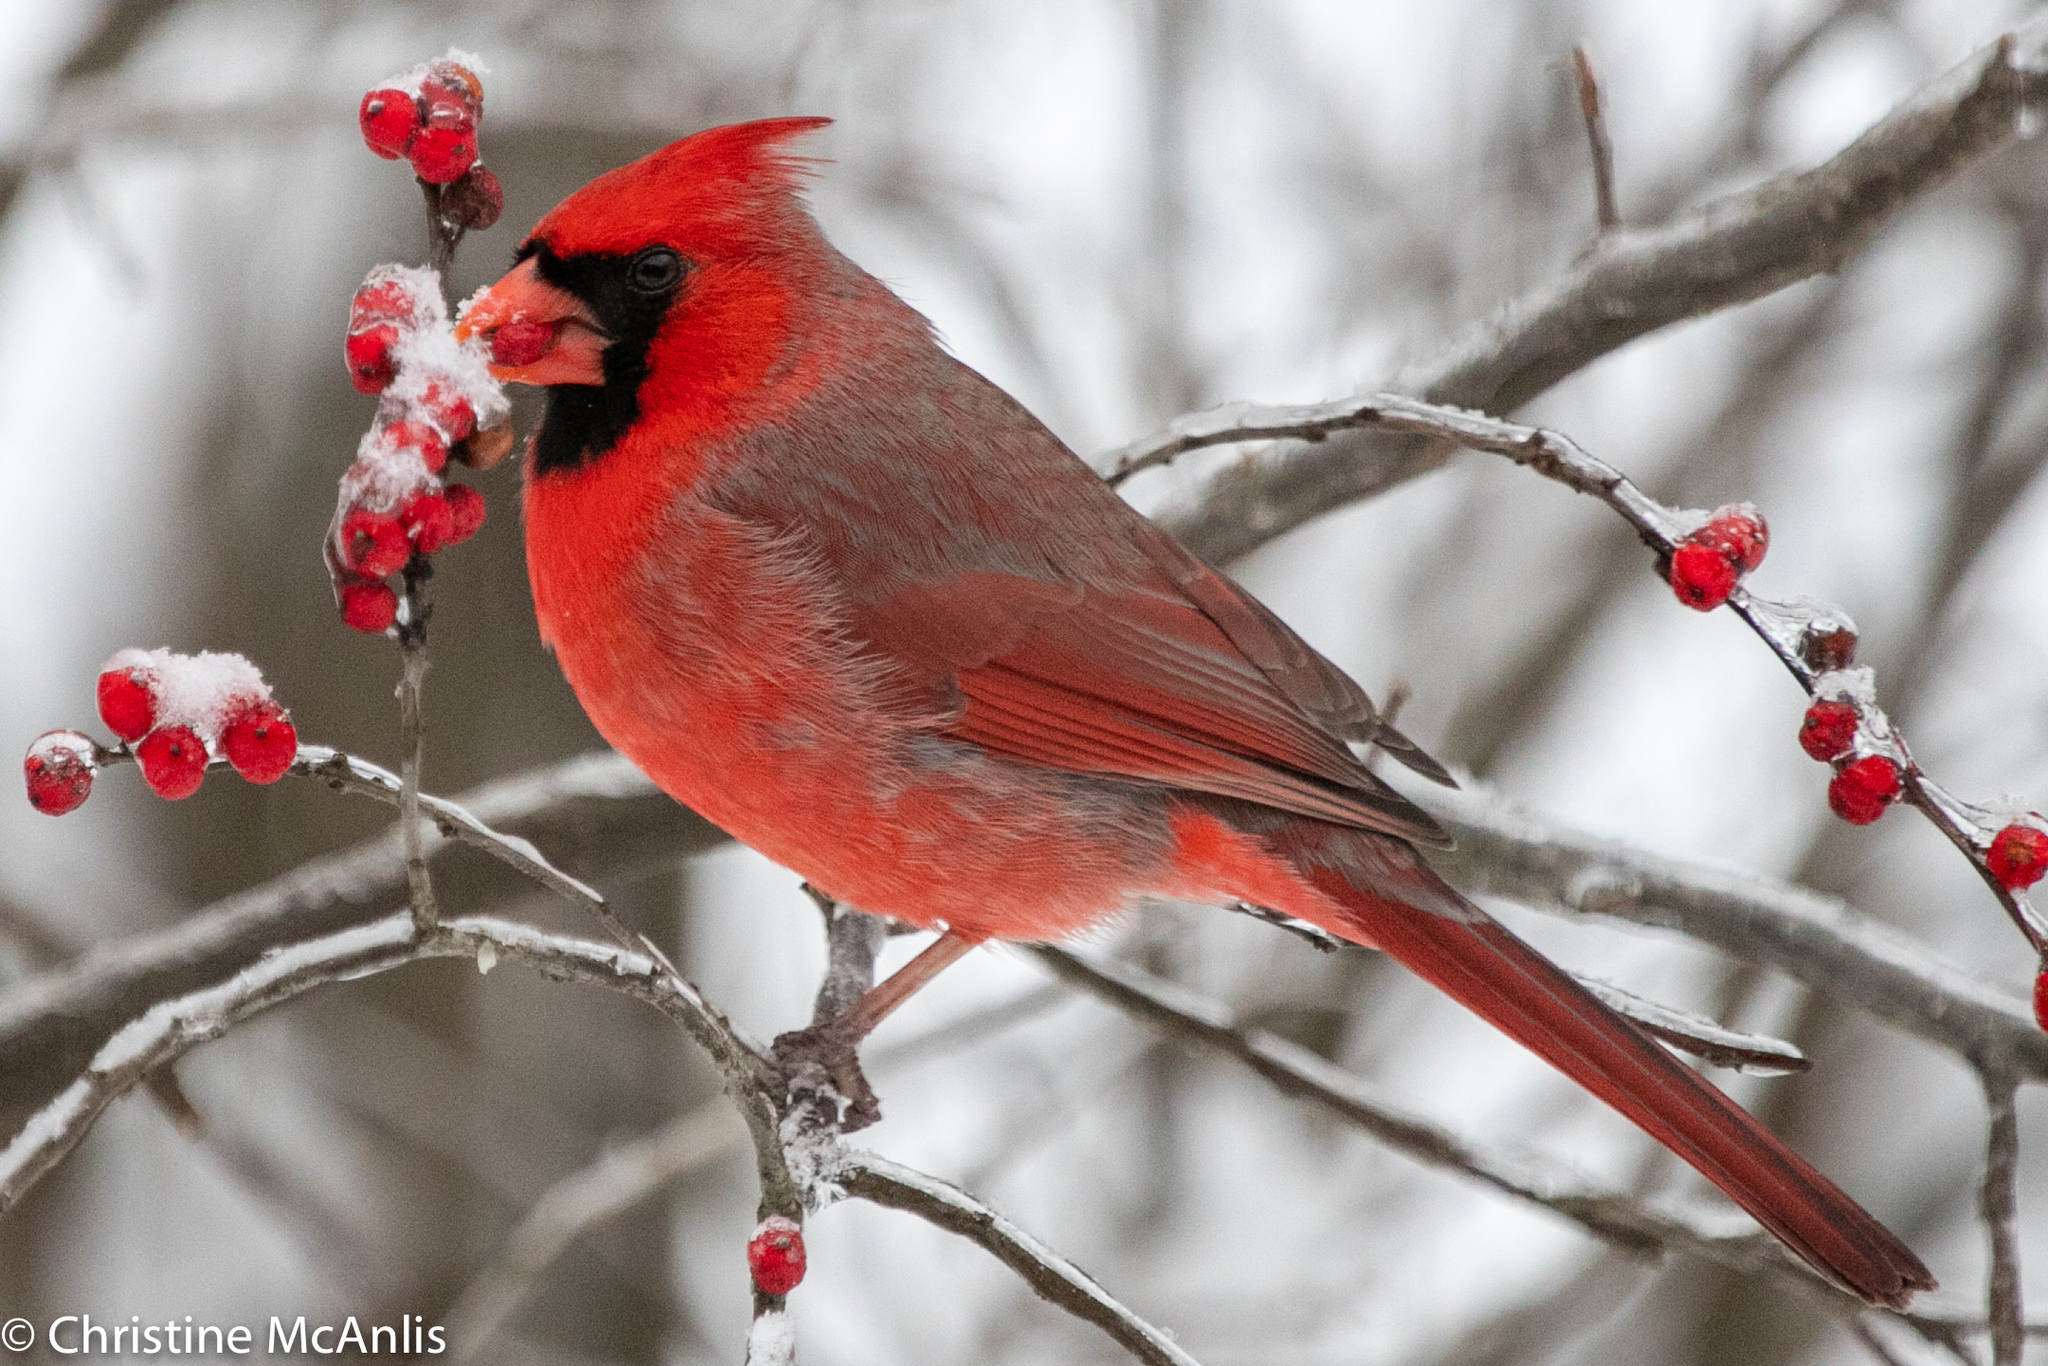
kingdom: Animalia
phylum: Chordata
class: Aves
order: Passeriformes
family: Cardinalidae
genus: Cardinalis
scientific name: Cardinalis cardinalis
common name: Northern cardinal
